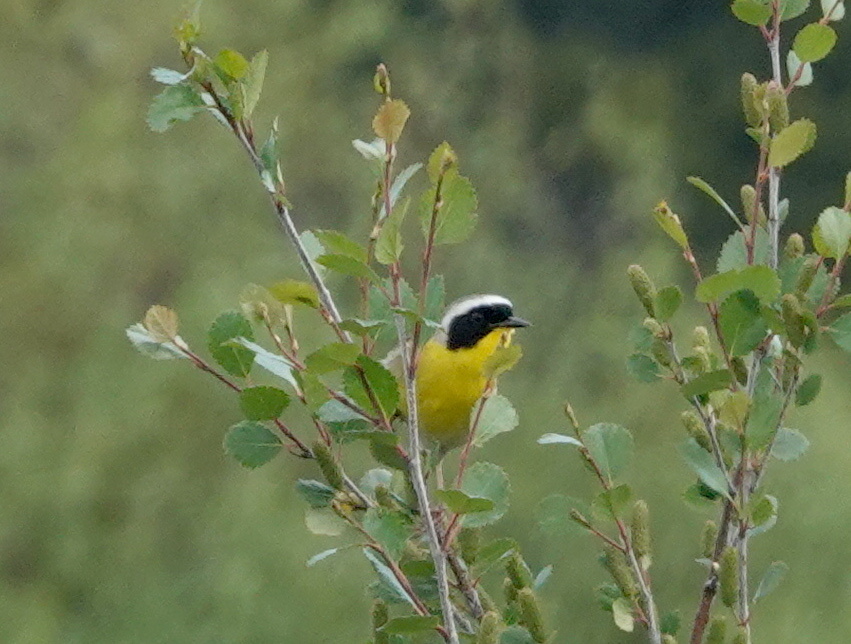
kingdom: Animalia
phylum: Chordata
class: Aves
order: Passeriformes
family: Parulidae
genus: Geothlypis
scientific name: Geothlypis trichas
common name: Common yellowthroat
